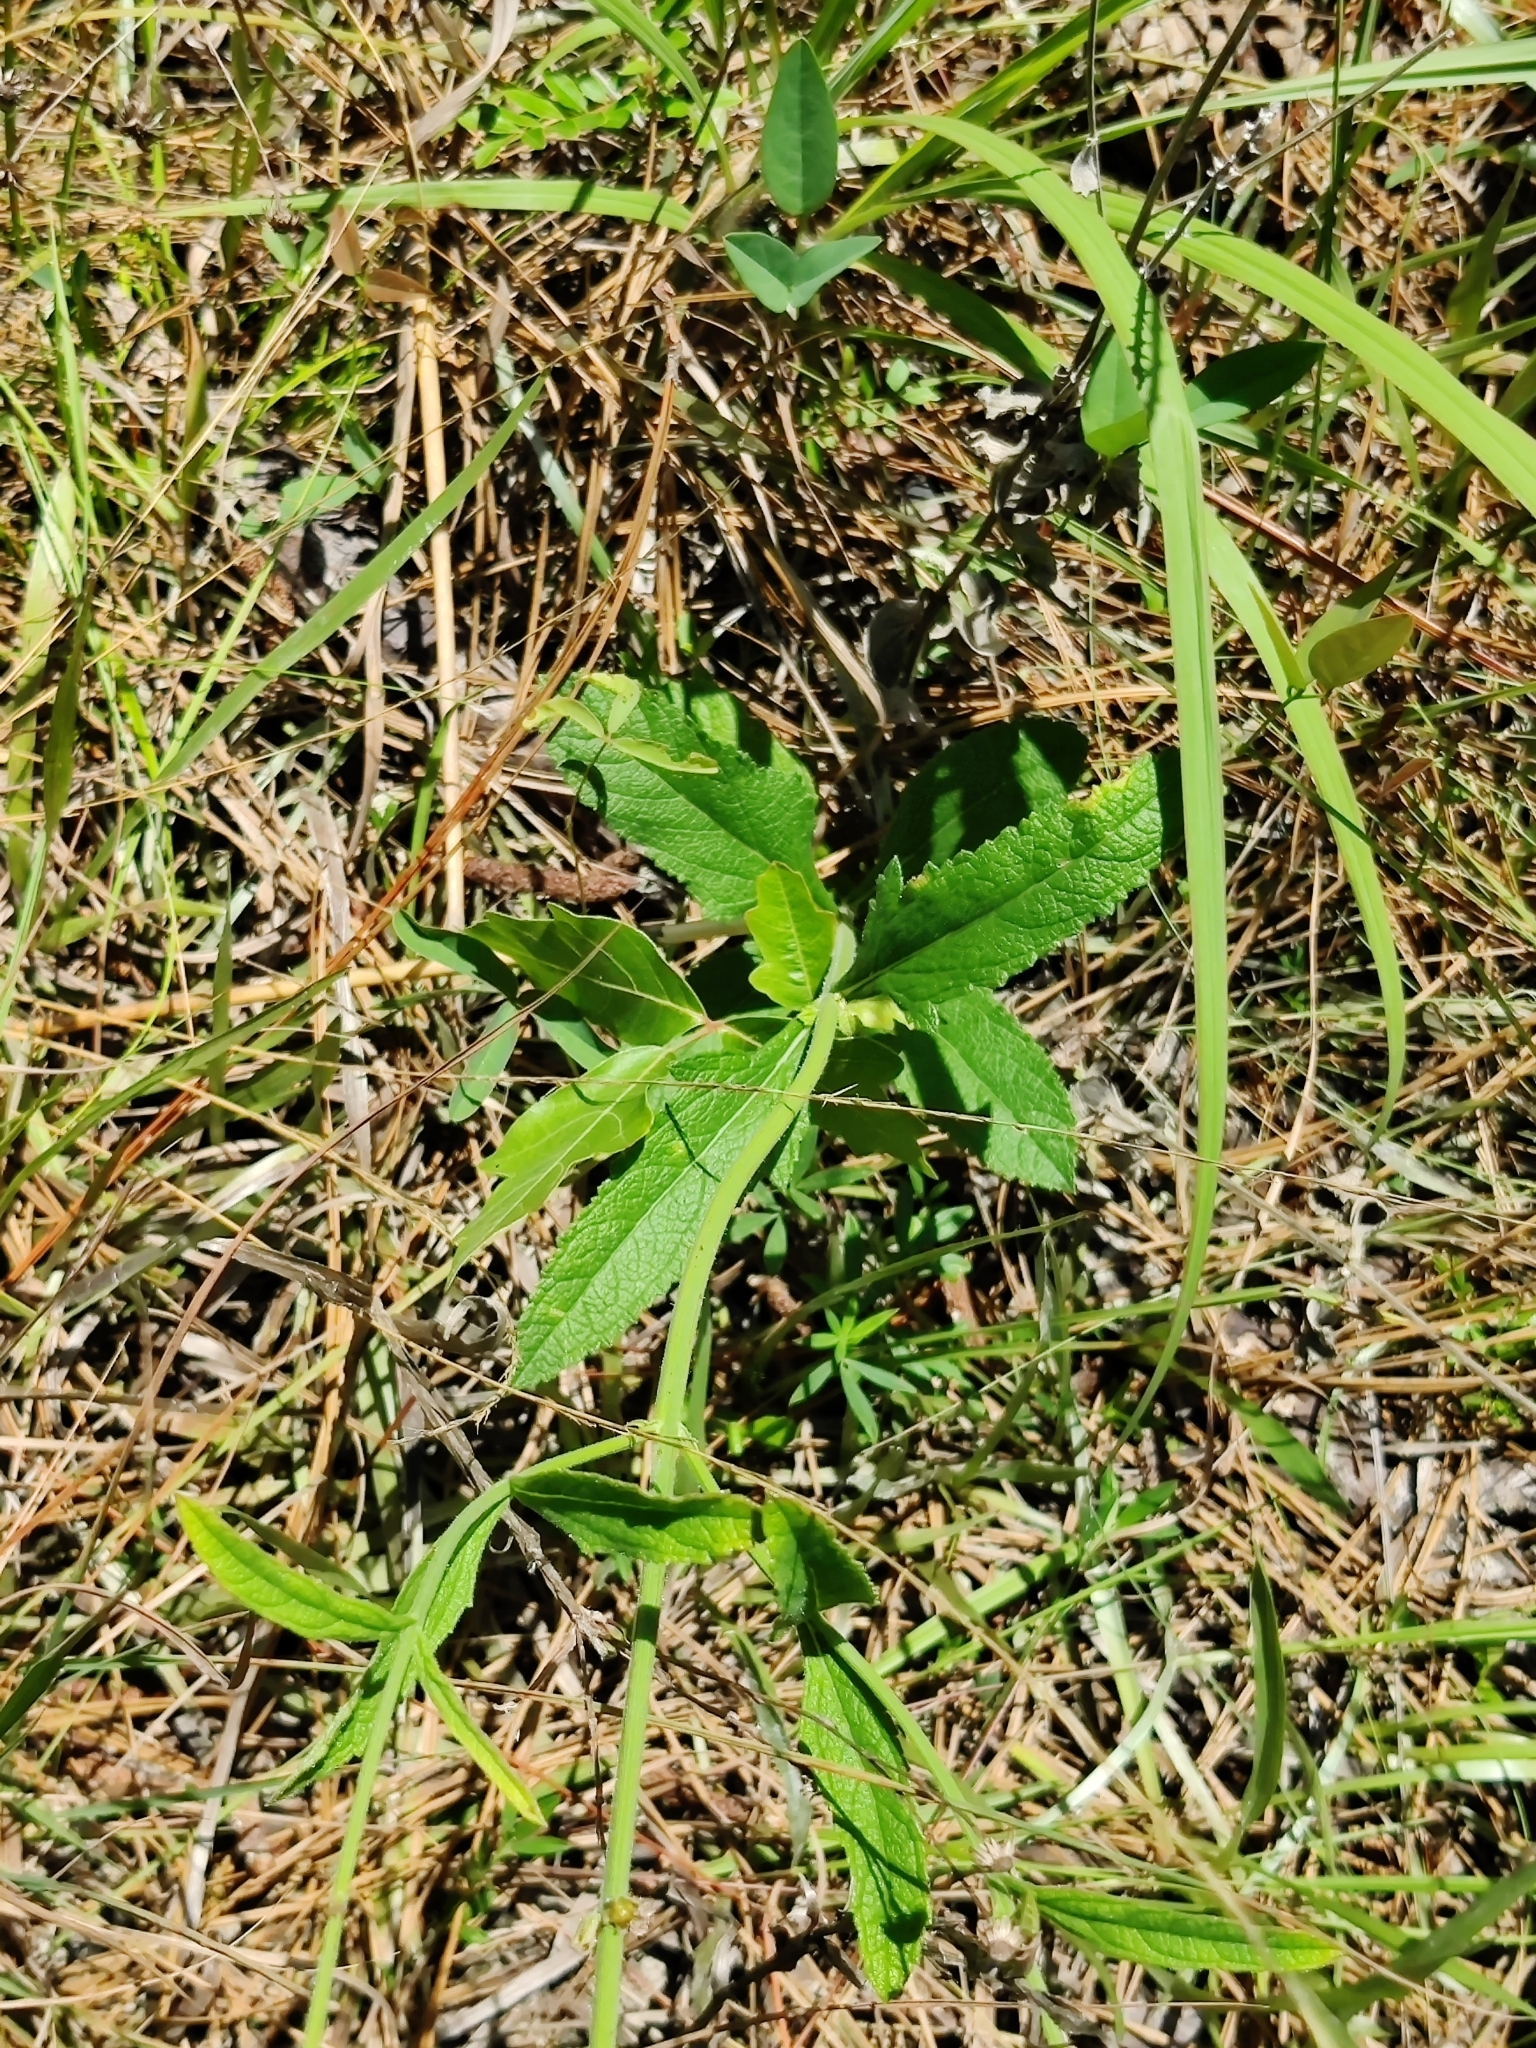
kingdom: Plantae
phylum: Tracheophyta
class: Magnoliopsida
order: Lamiales
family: Verbenaceae
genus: Verbena
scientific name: Verbena carnea
